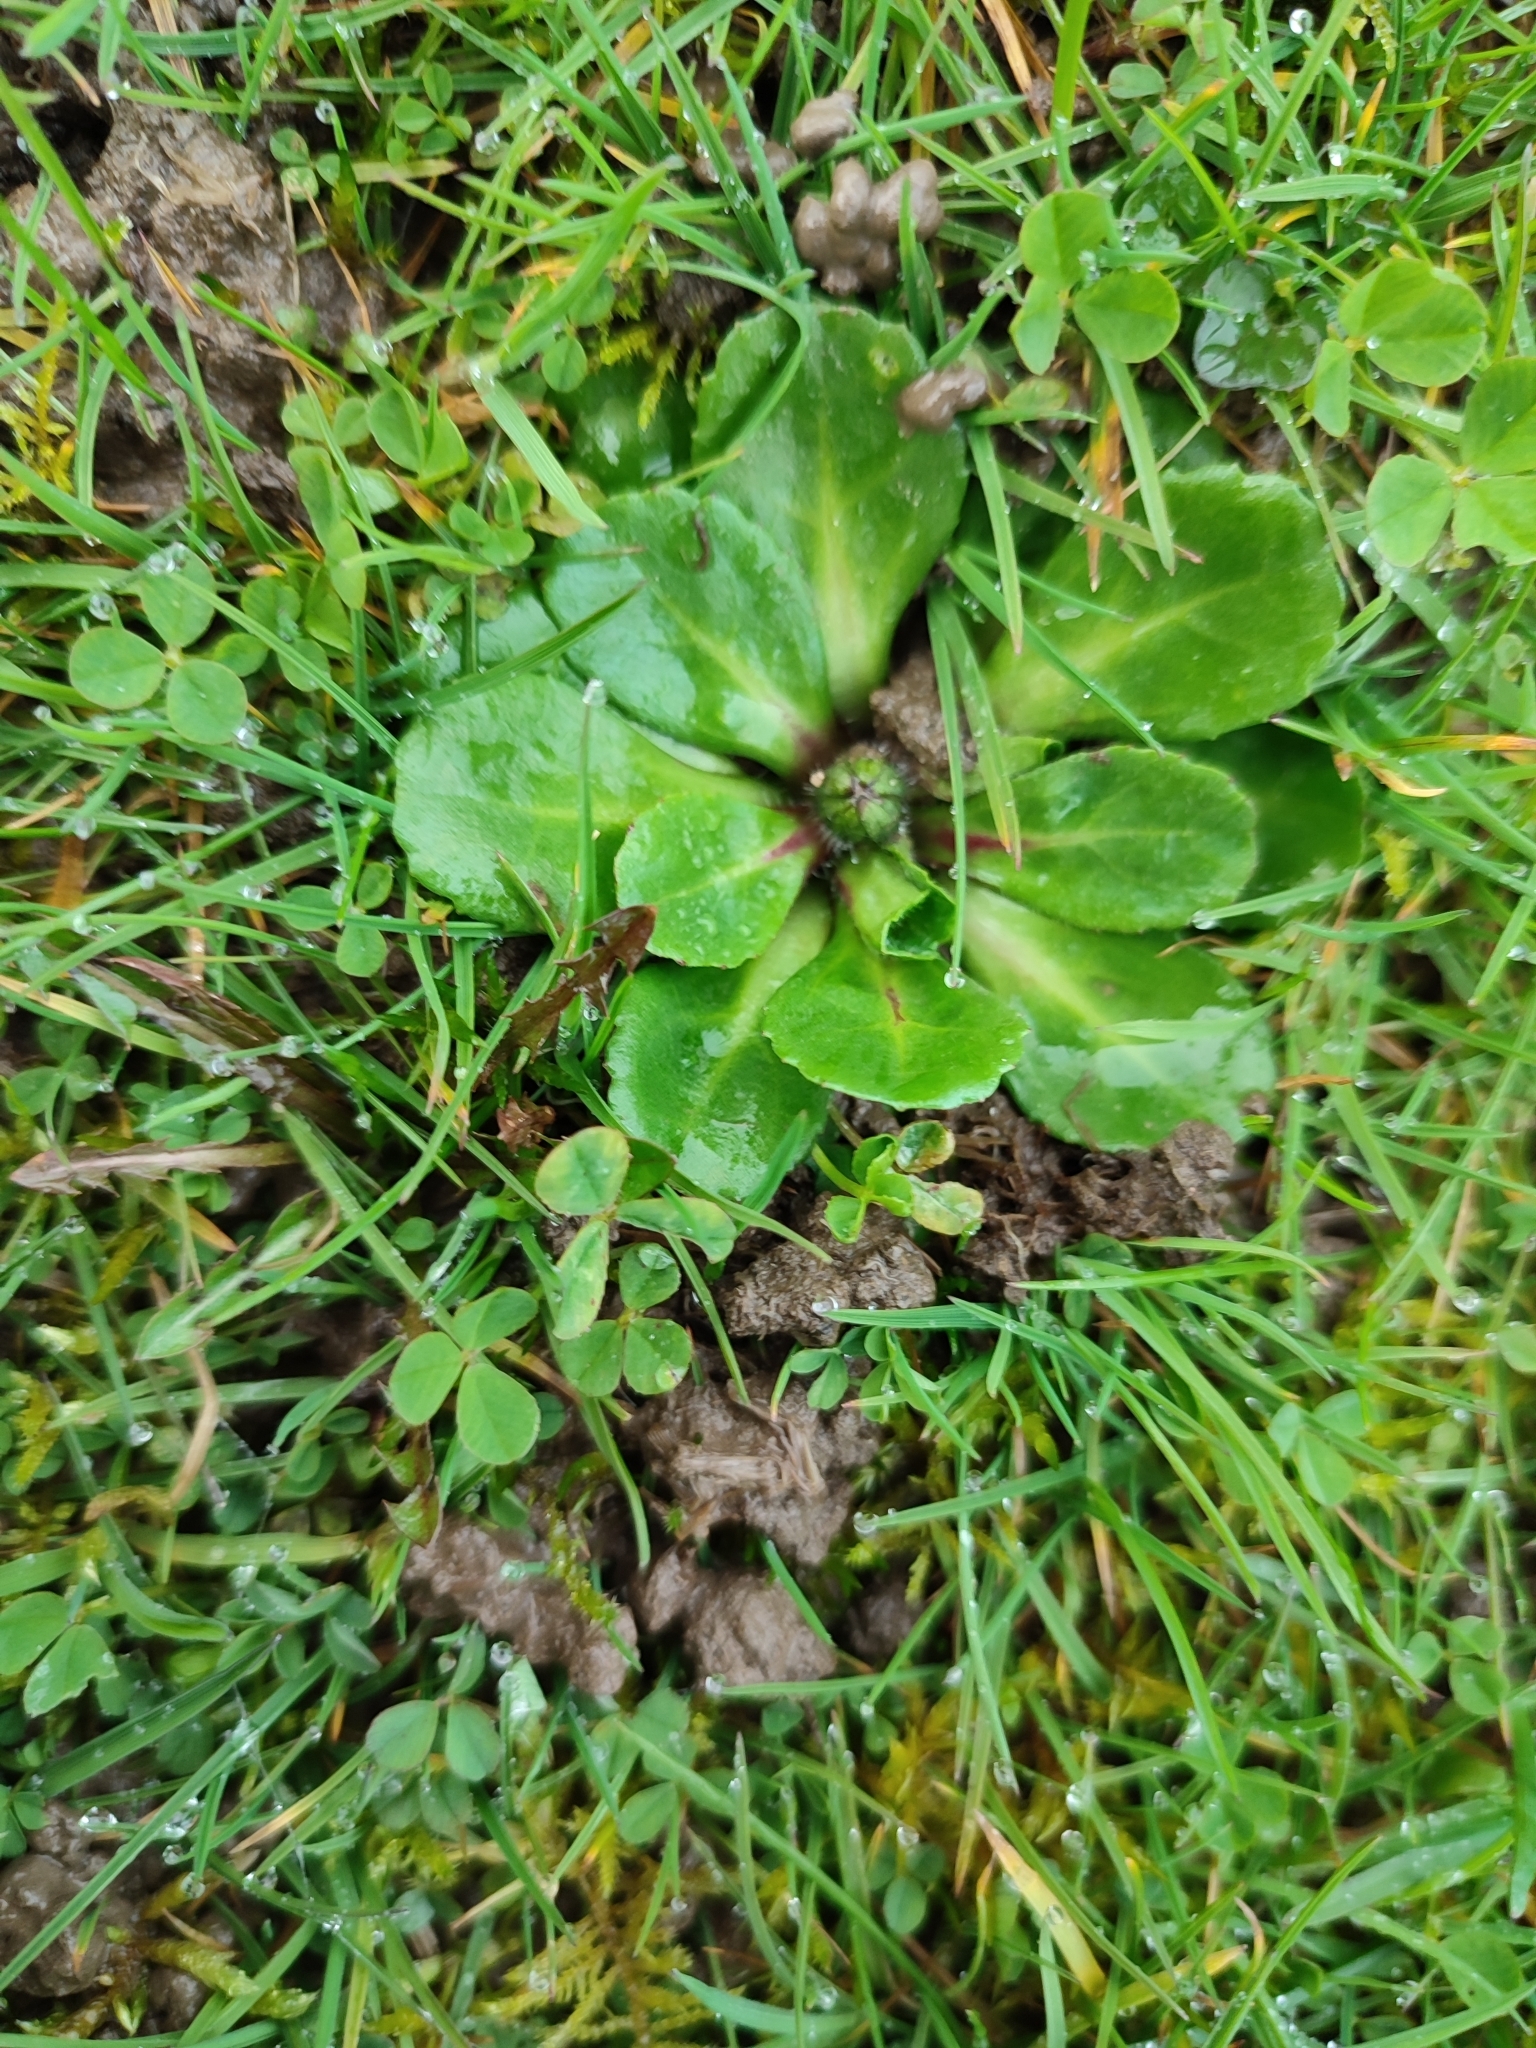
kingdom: Plantae
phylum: Tracheophyta
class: Magnoliopsida
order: Asterales
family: Asteraceae
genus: Bellis
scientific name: Bellis perennis
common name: Lawndaisy
